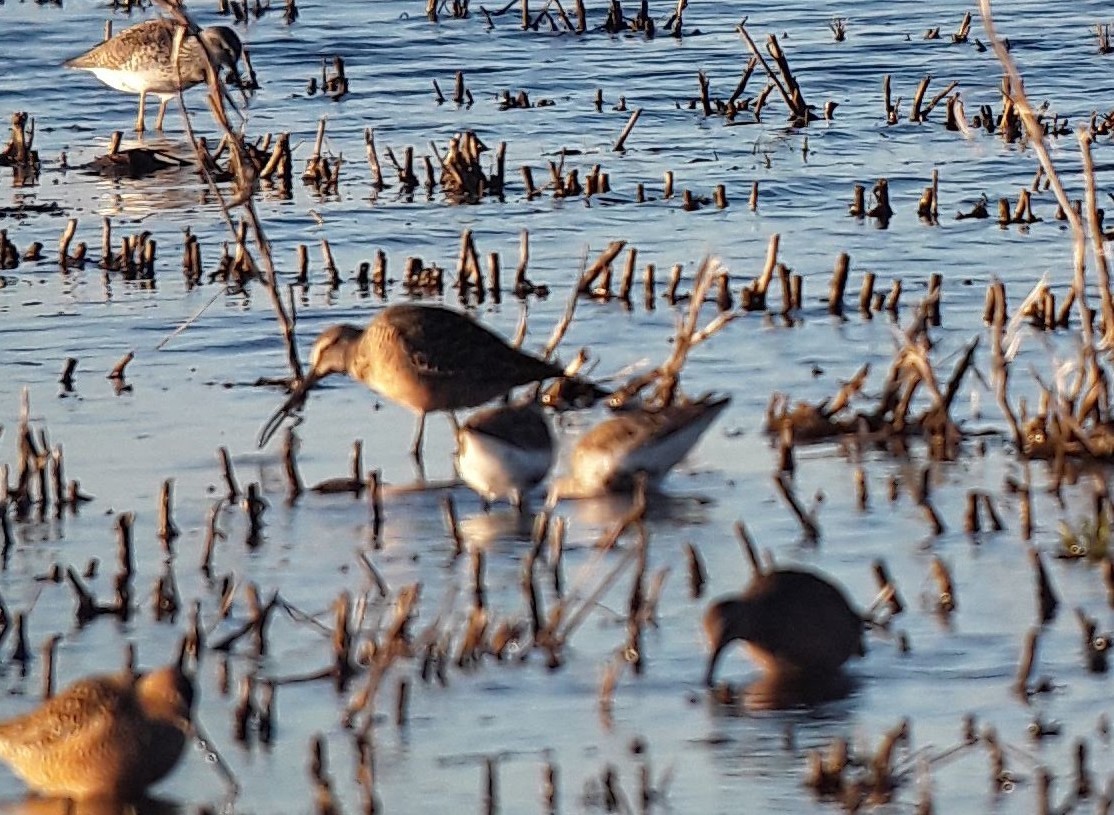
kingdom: Animalia
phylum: Chordata
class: Aves
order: Charadriiformes
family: Scolopacidae
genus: Calidris
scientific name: Calidris alpina
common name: Dunlin
